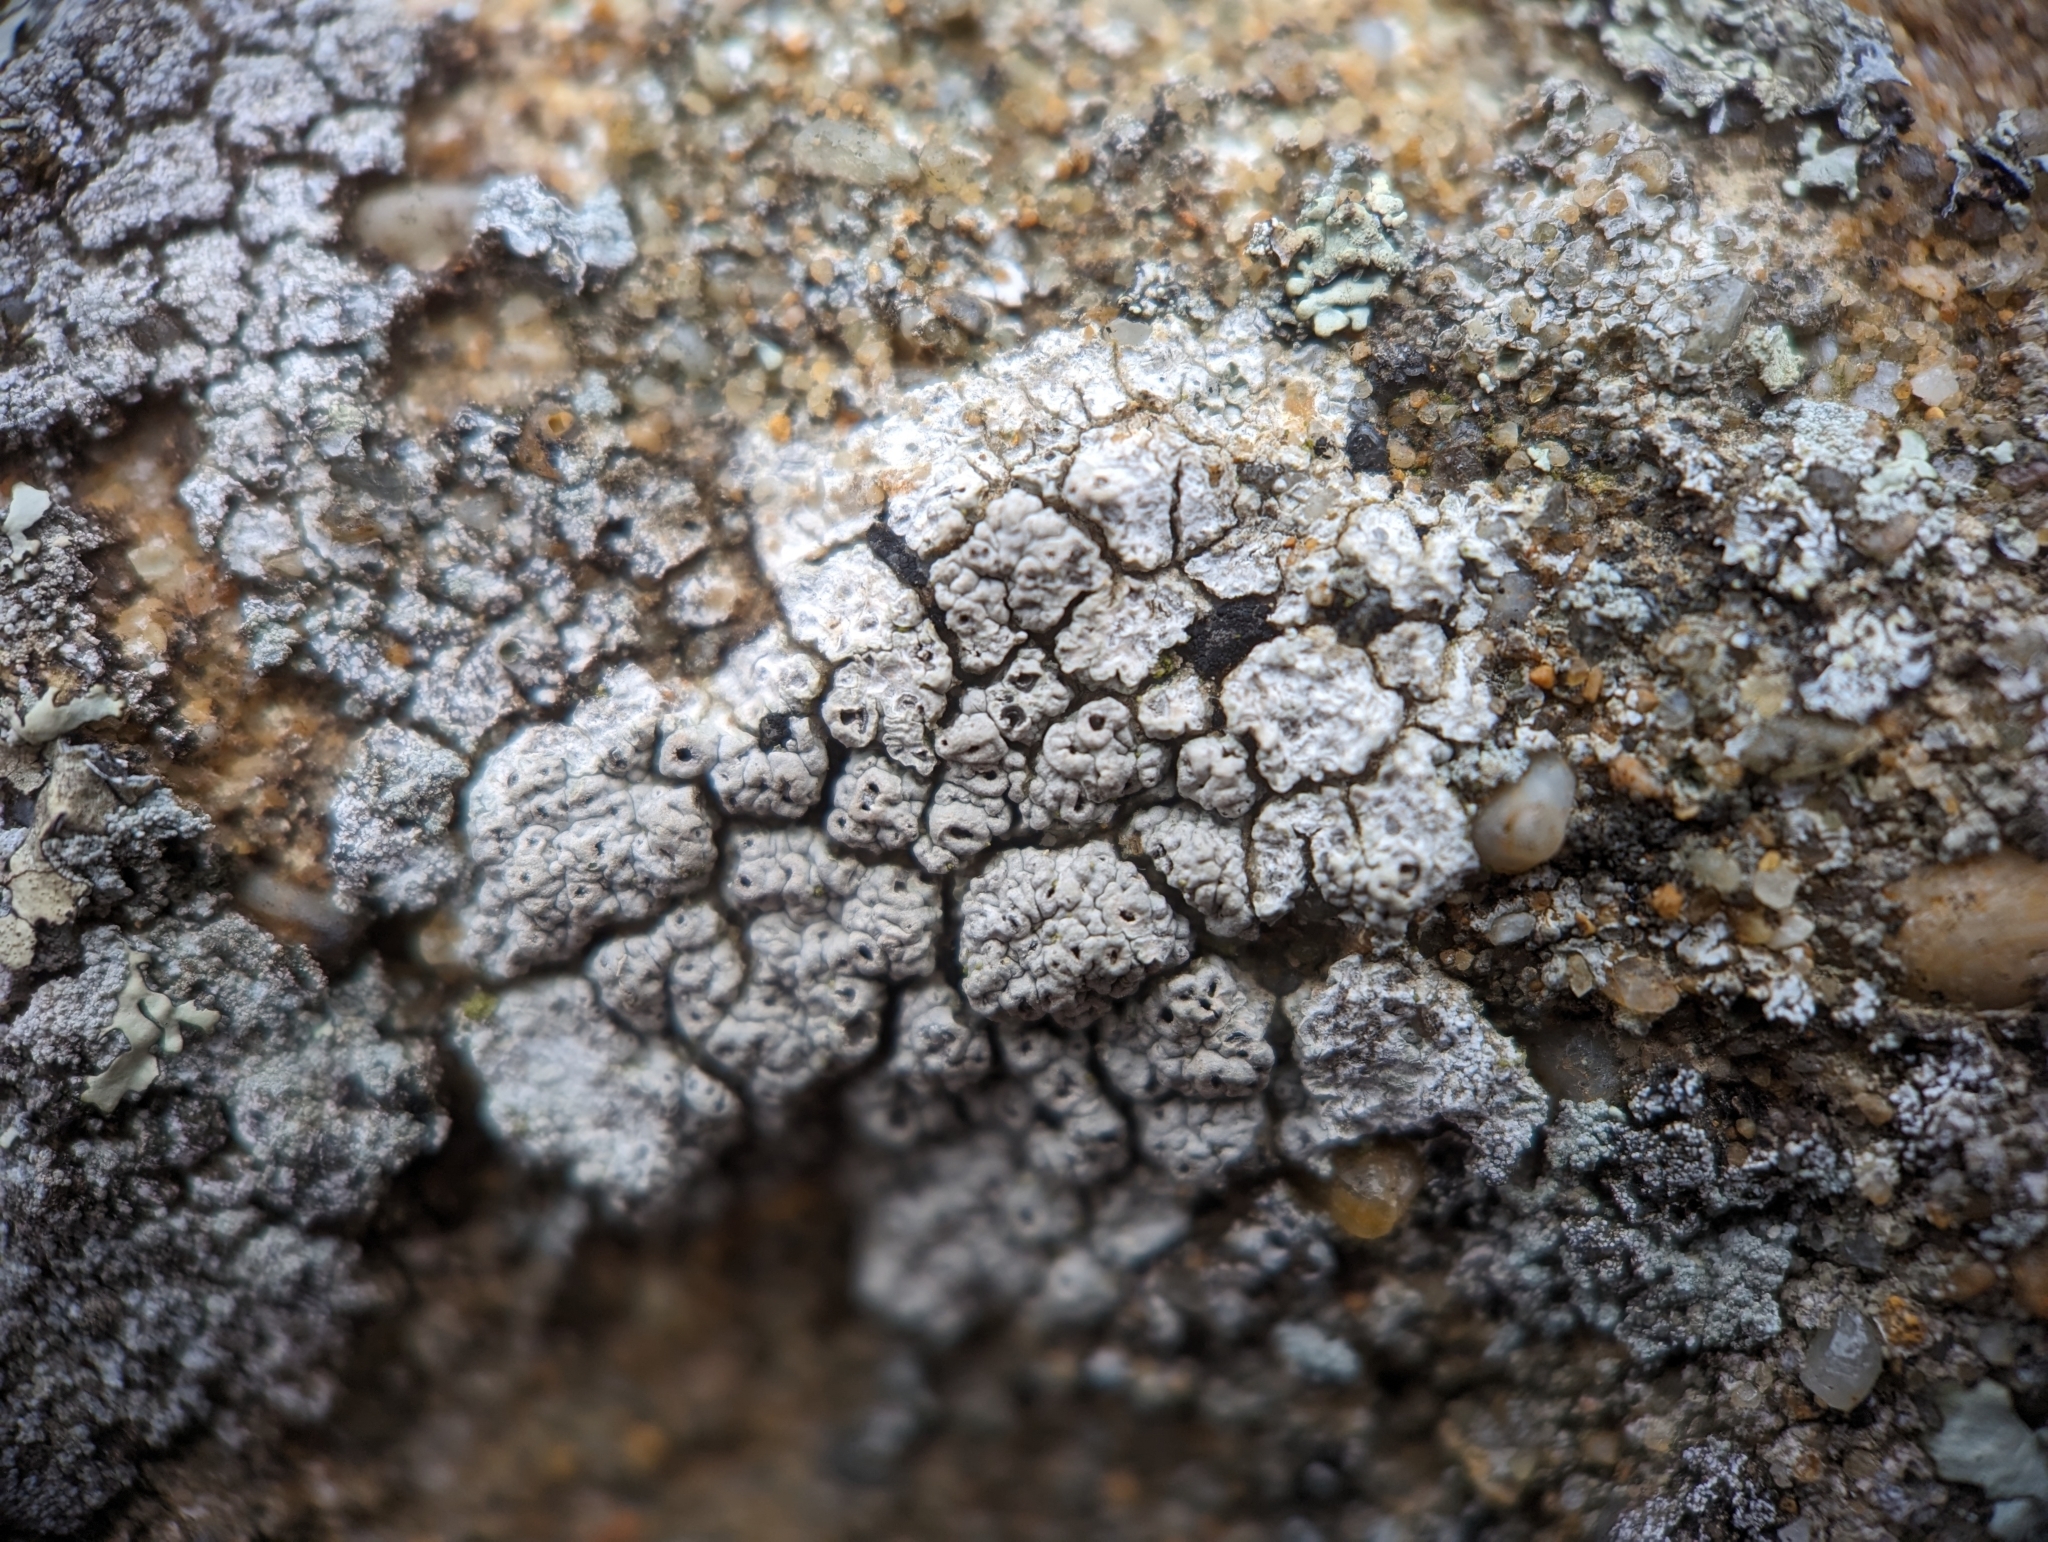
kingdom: Fungi
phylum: Ascomycota
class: Lecanoromycetes
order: Ostropales
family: Graphidaceae
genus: Diploschistes
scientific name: Diploschistes scruposus
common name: Crater lichen
